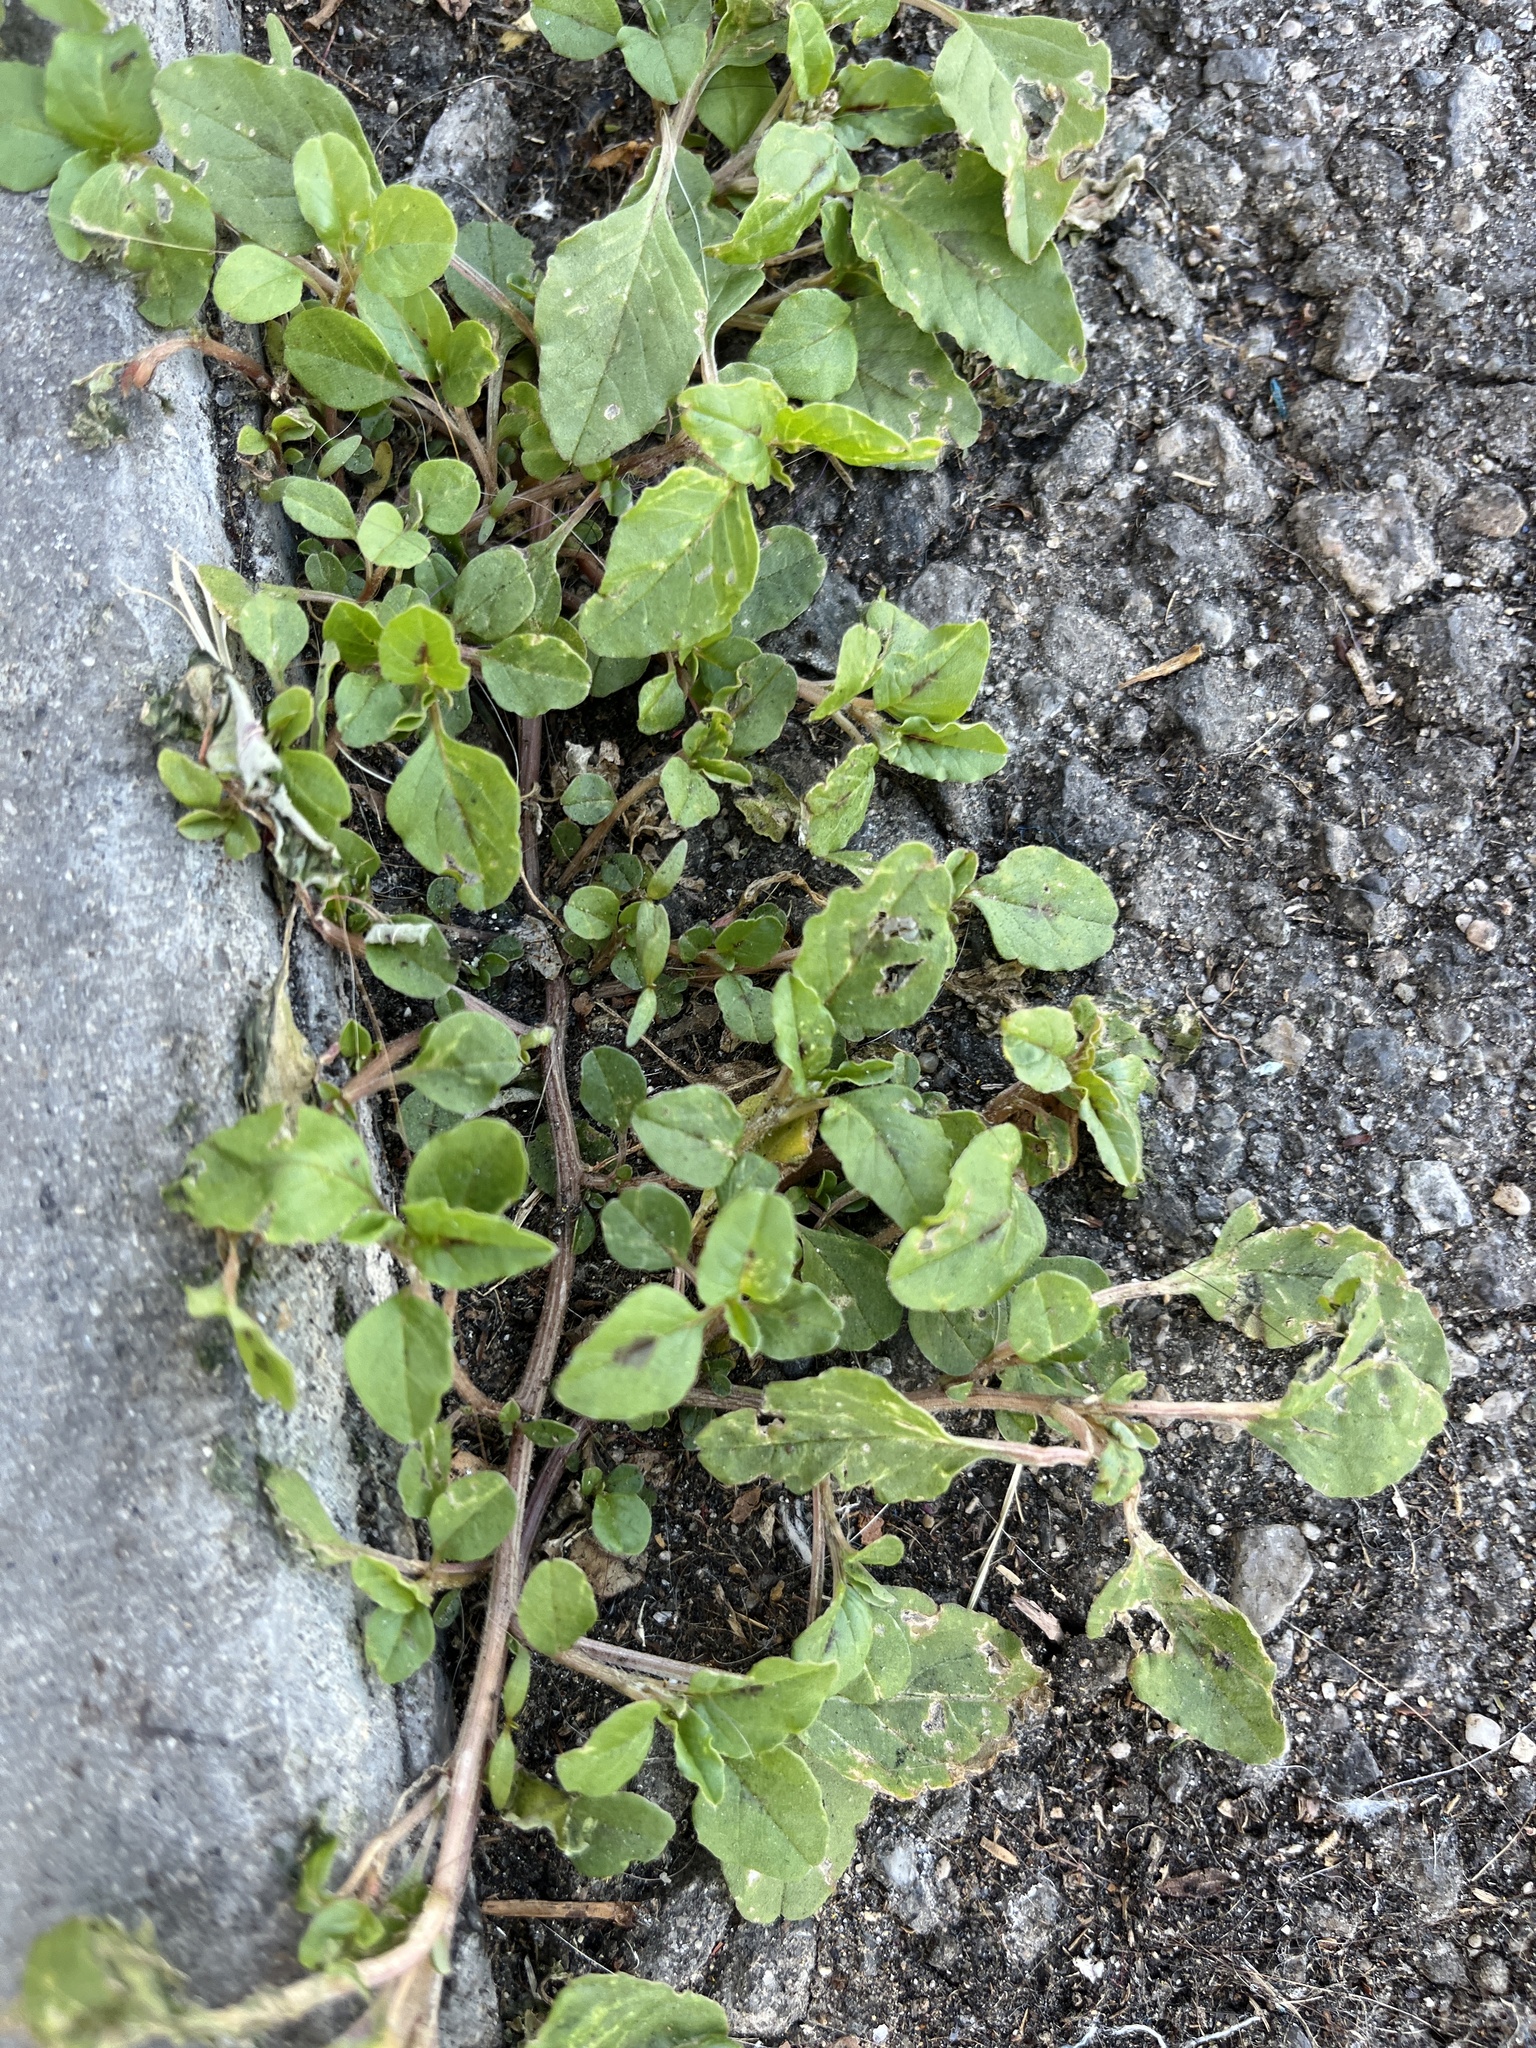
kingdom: Plantae
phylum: Tracheophyta
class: Magnoliopsida
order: Caryophyllales
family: Amaranthaceae
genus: Amaranthus
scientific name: Amaranthus deflexus
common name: Perennial pigweed
